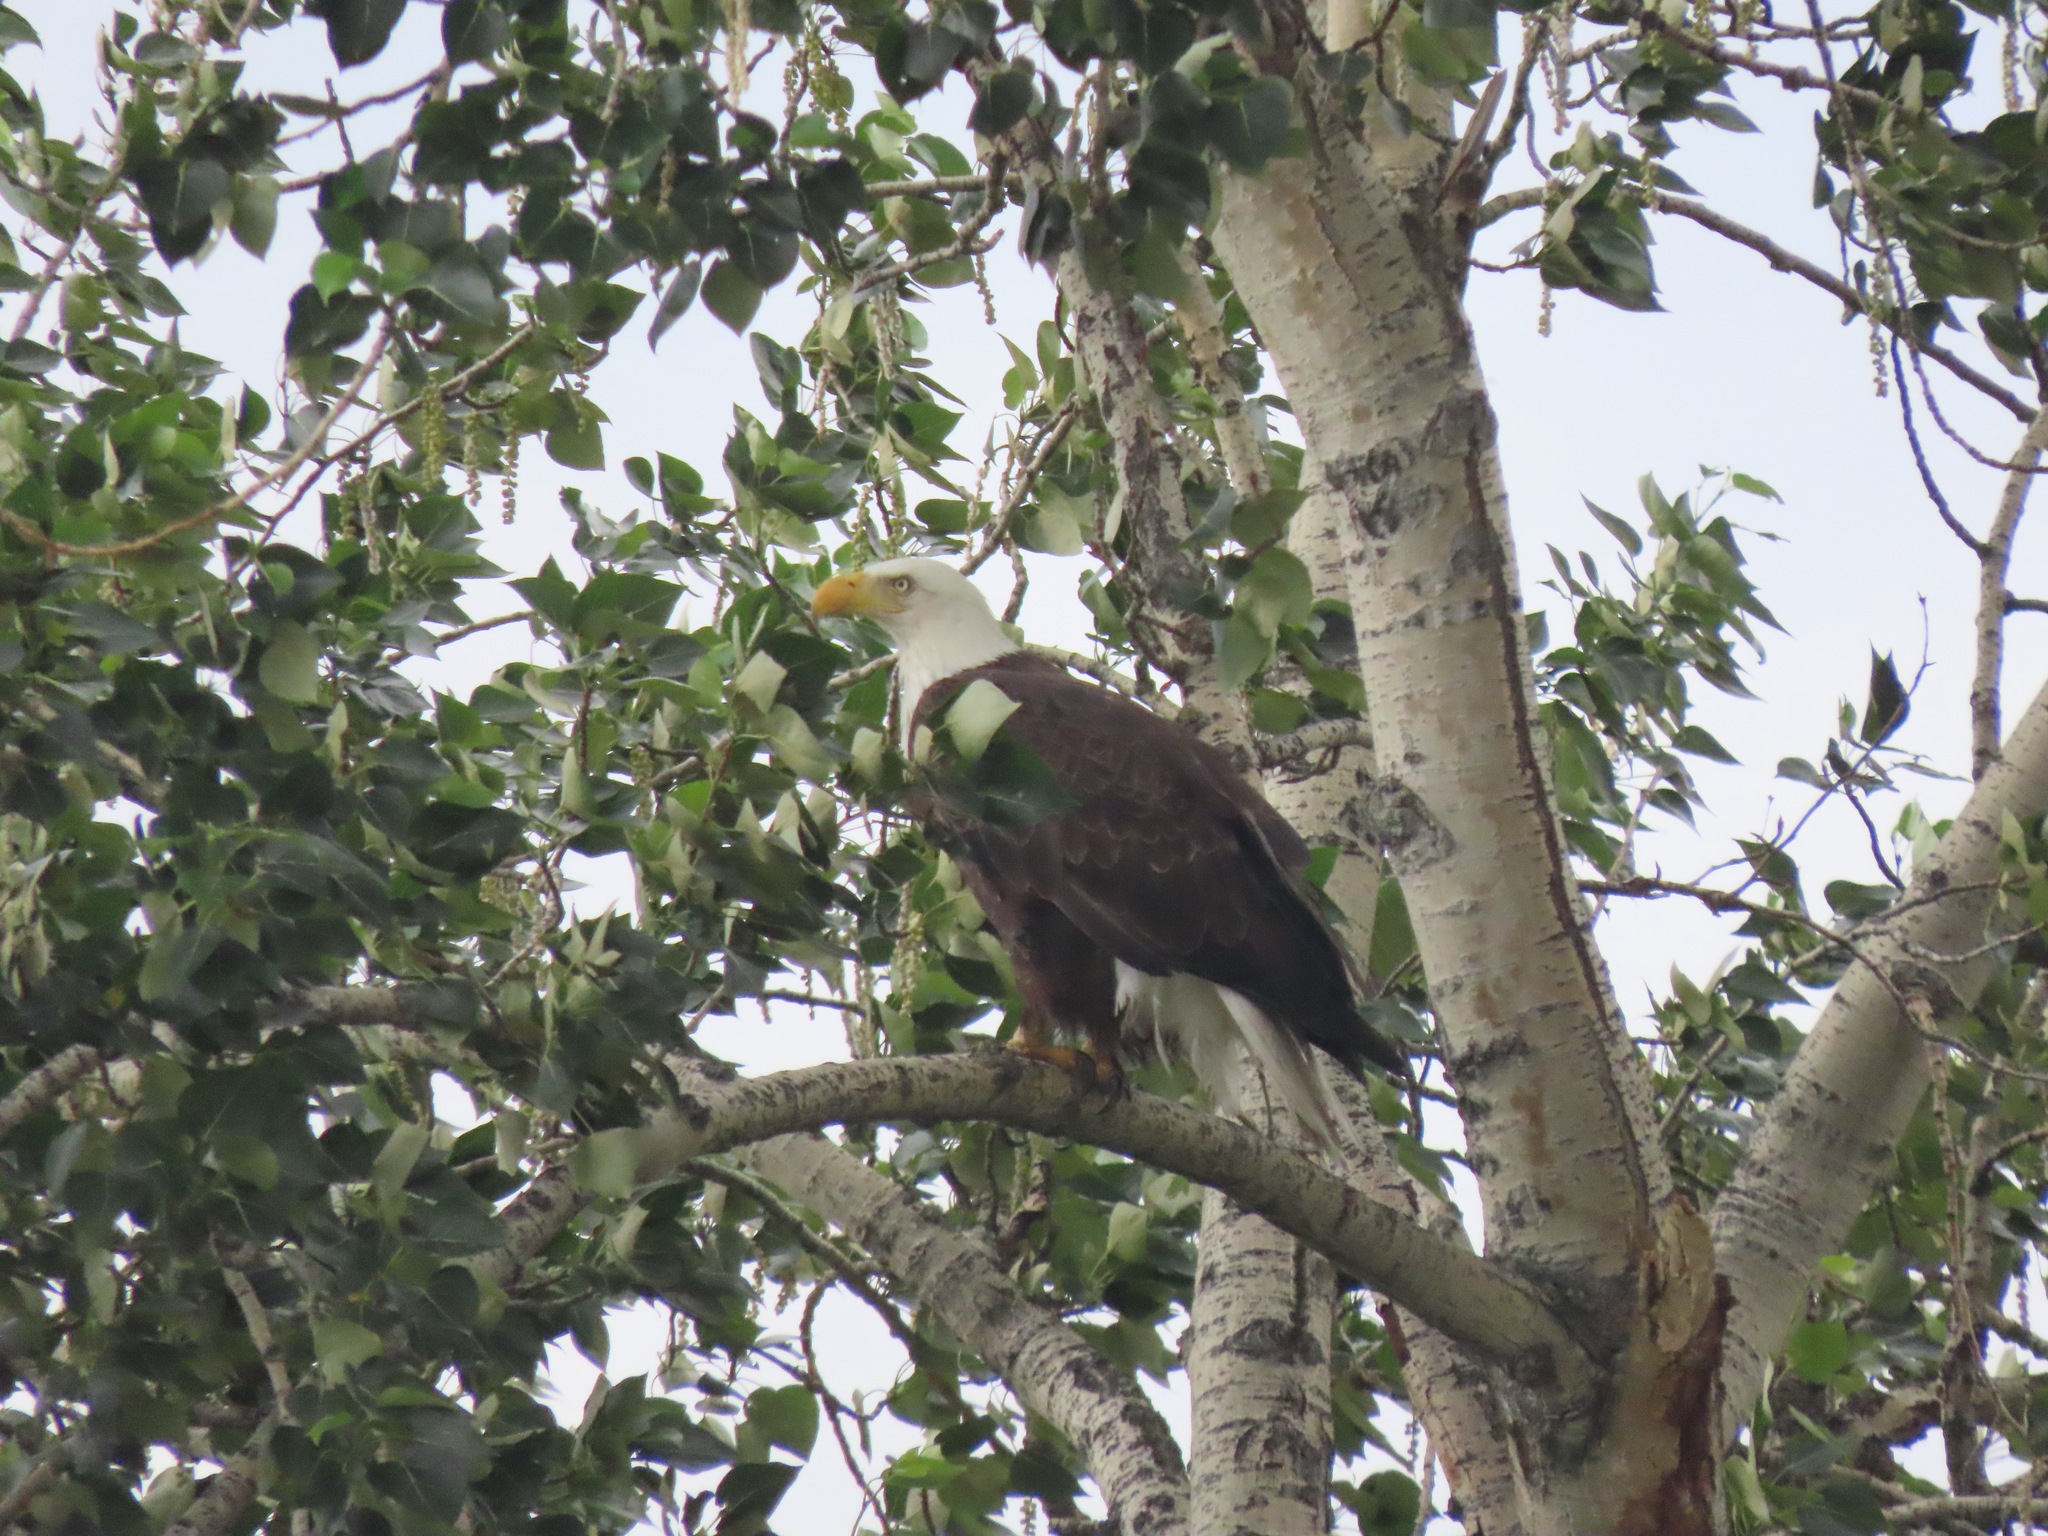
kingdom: Animalia
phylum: Chordata
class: Aves
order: Accipitriformes
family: Accipitridae
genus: Haliaeetus
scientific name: Haliaeetus leucocephalus
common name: Bald eagle
